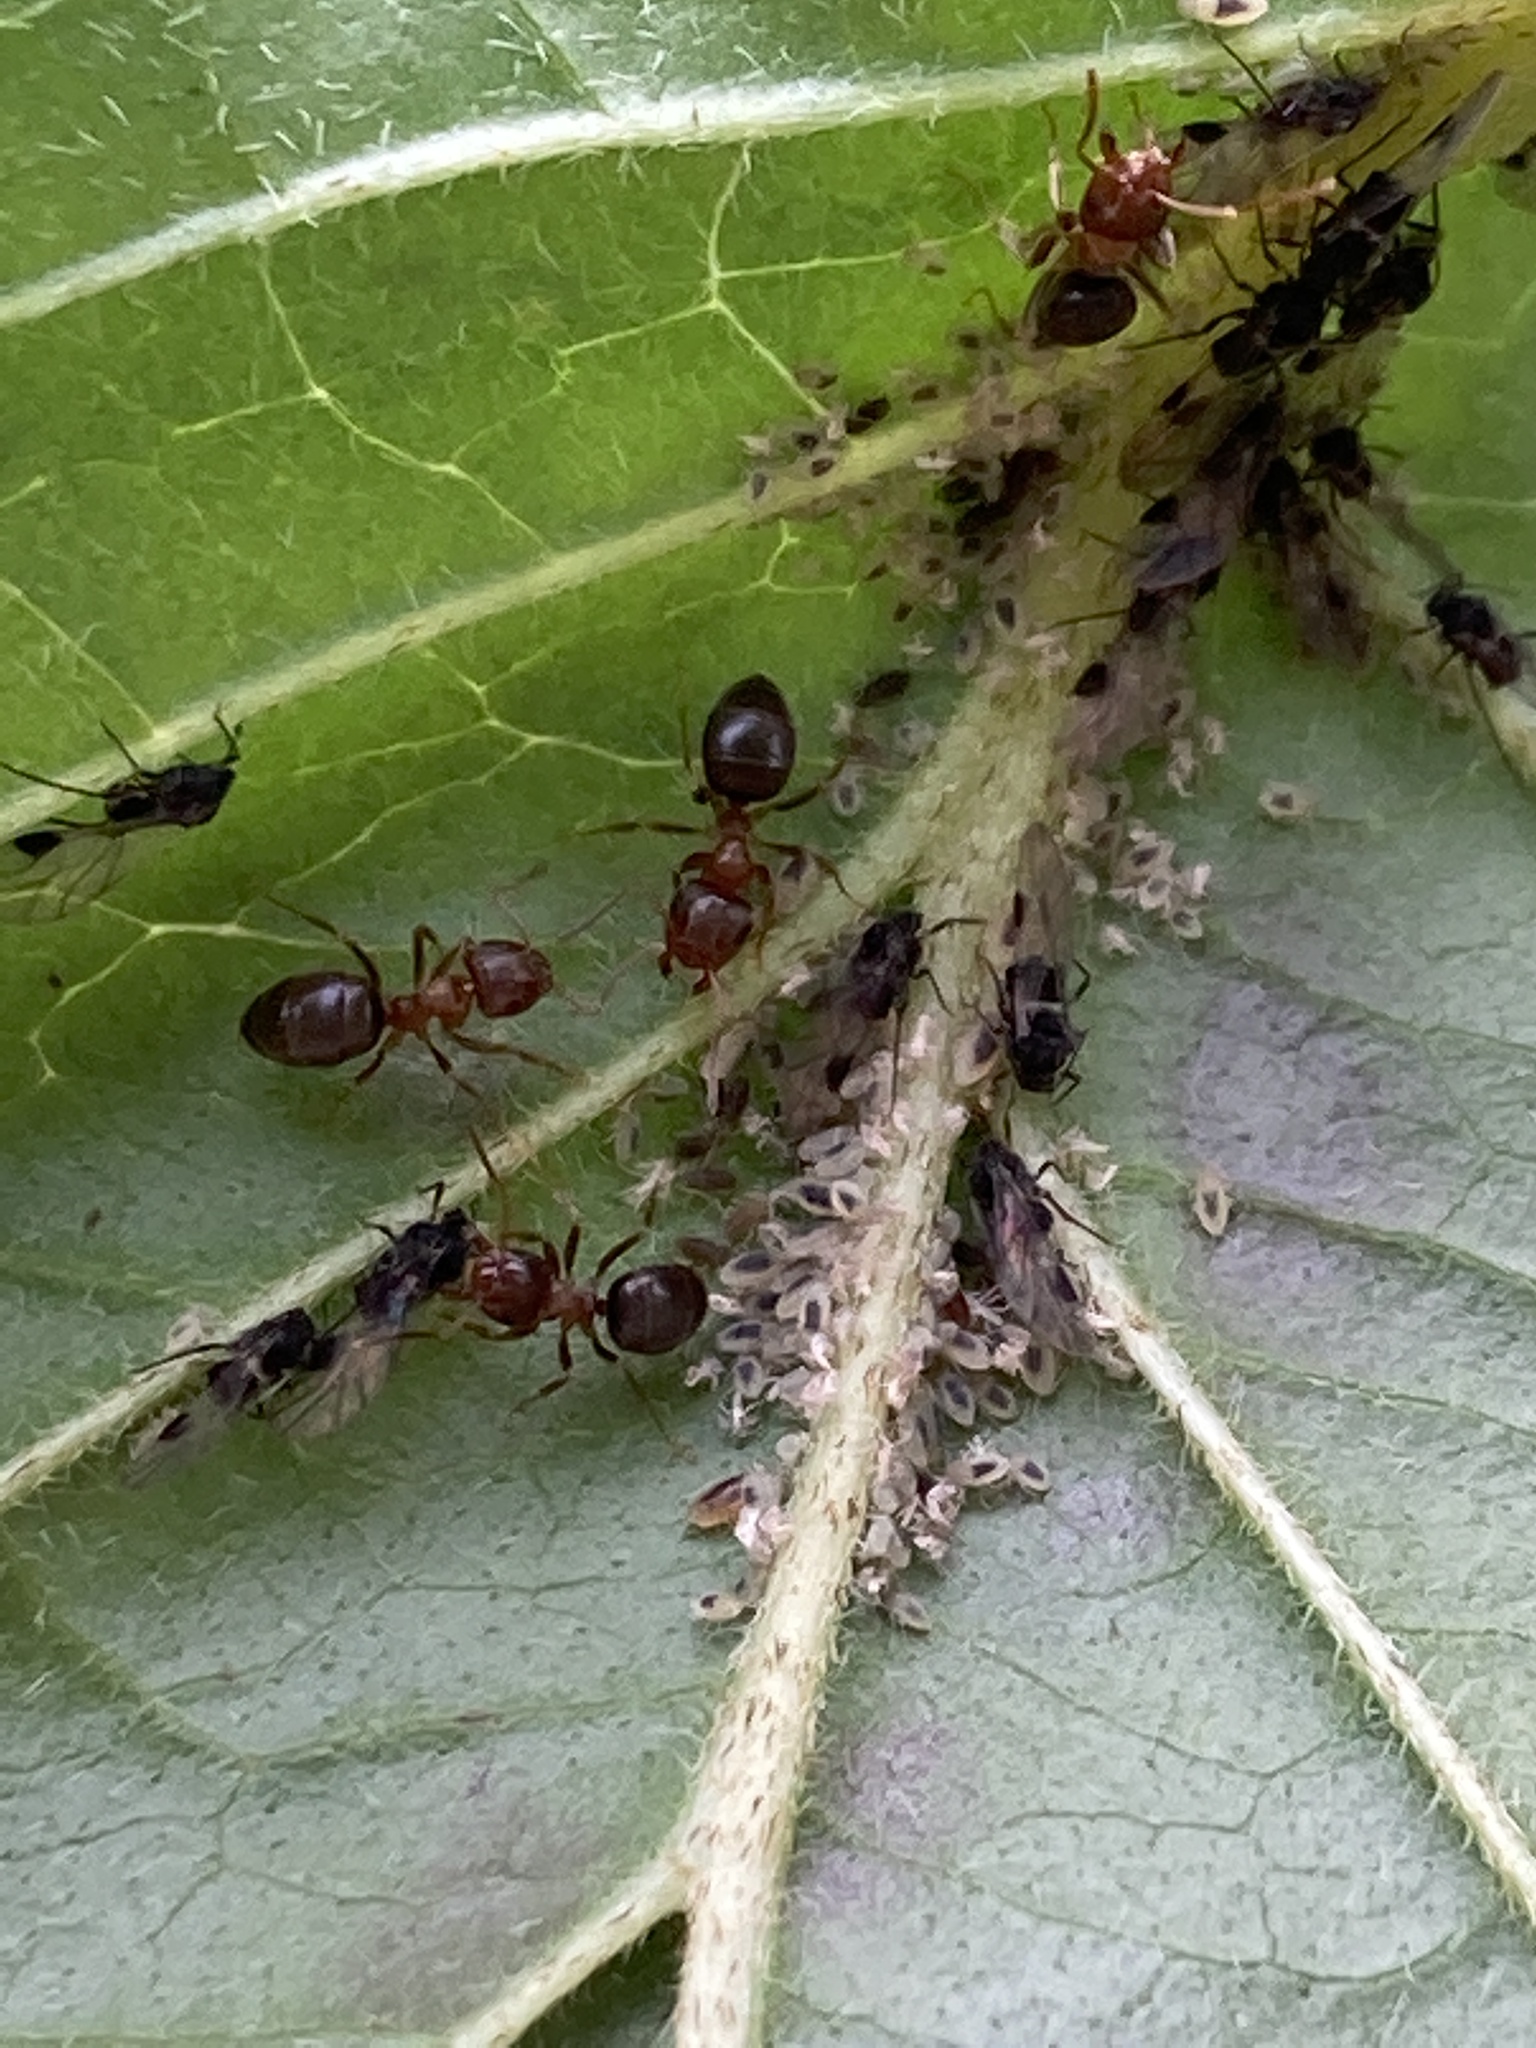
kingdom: Animalia
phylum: Arthropoda
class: Insecta
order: Hymenoptera
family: Formicidae
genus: Lasius
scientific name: Lasius brunneus
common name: Brown ant
